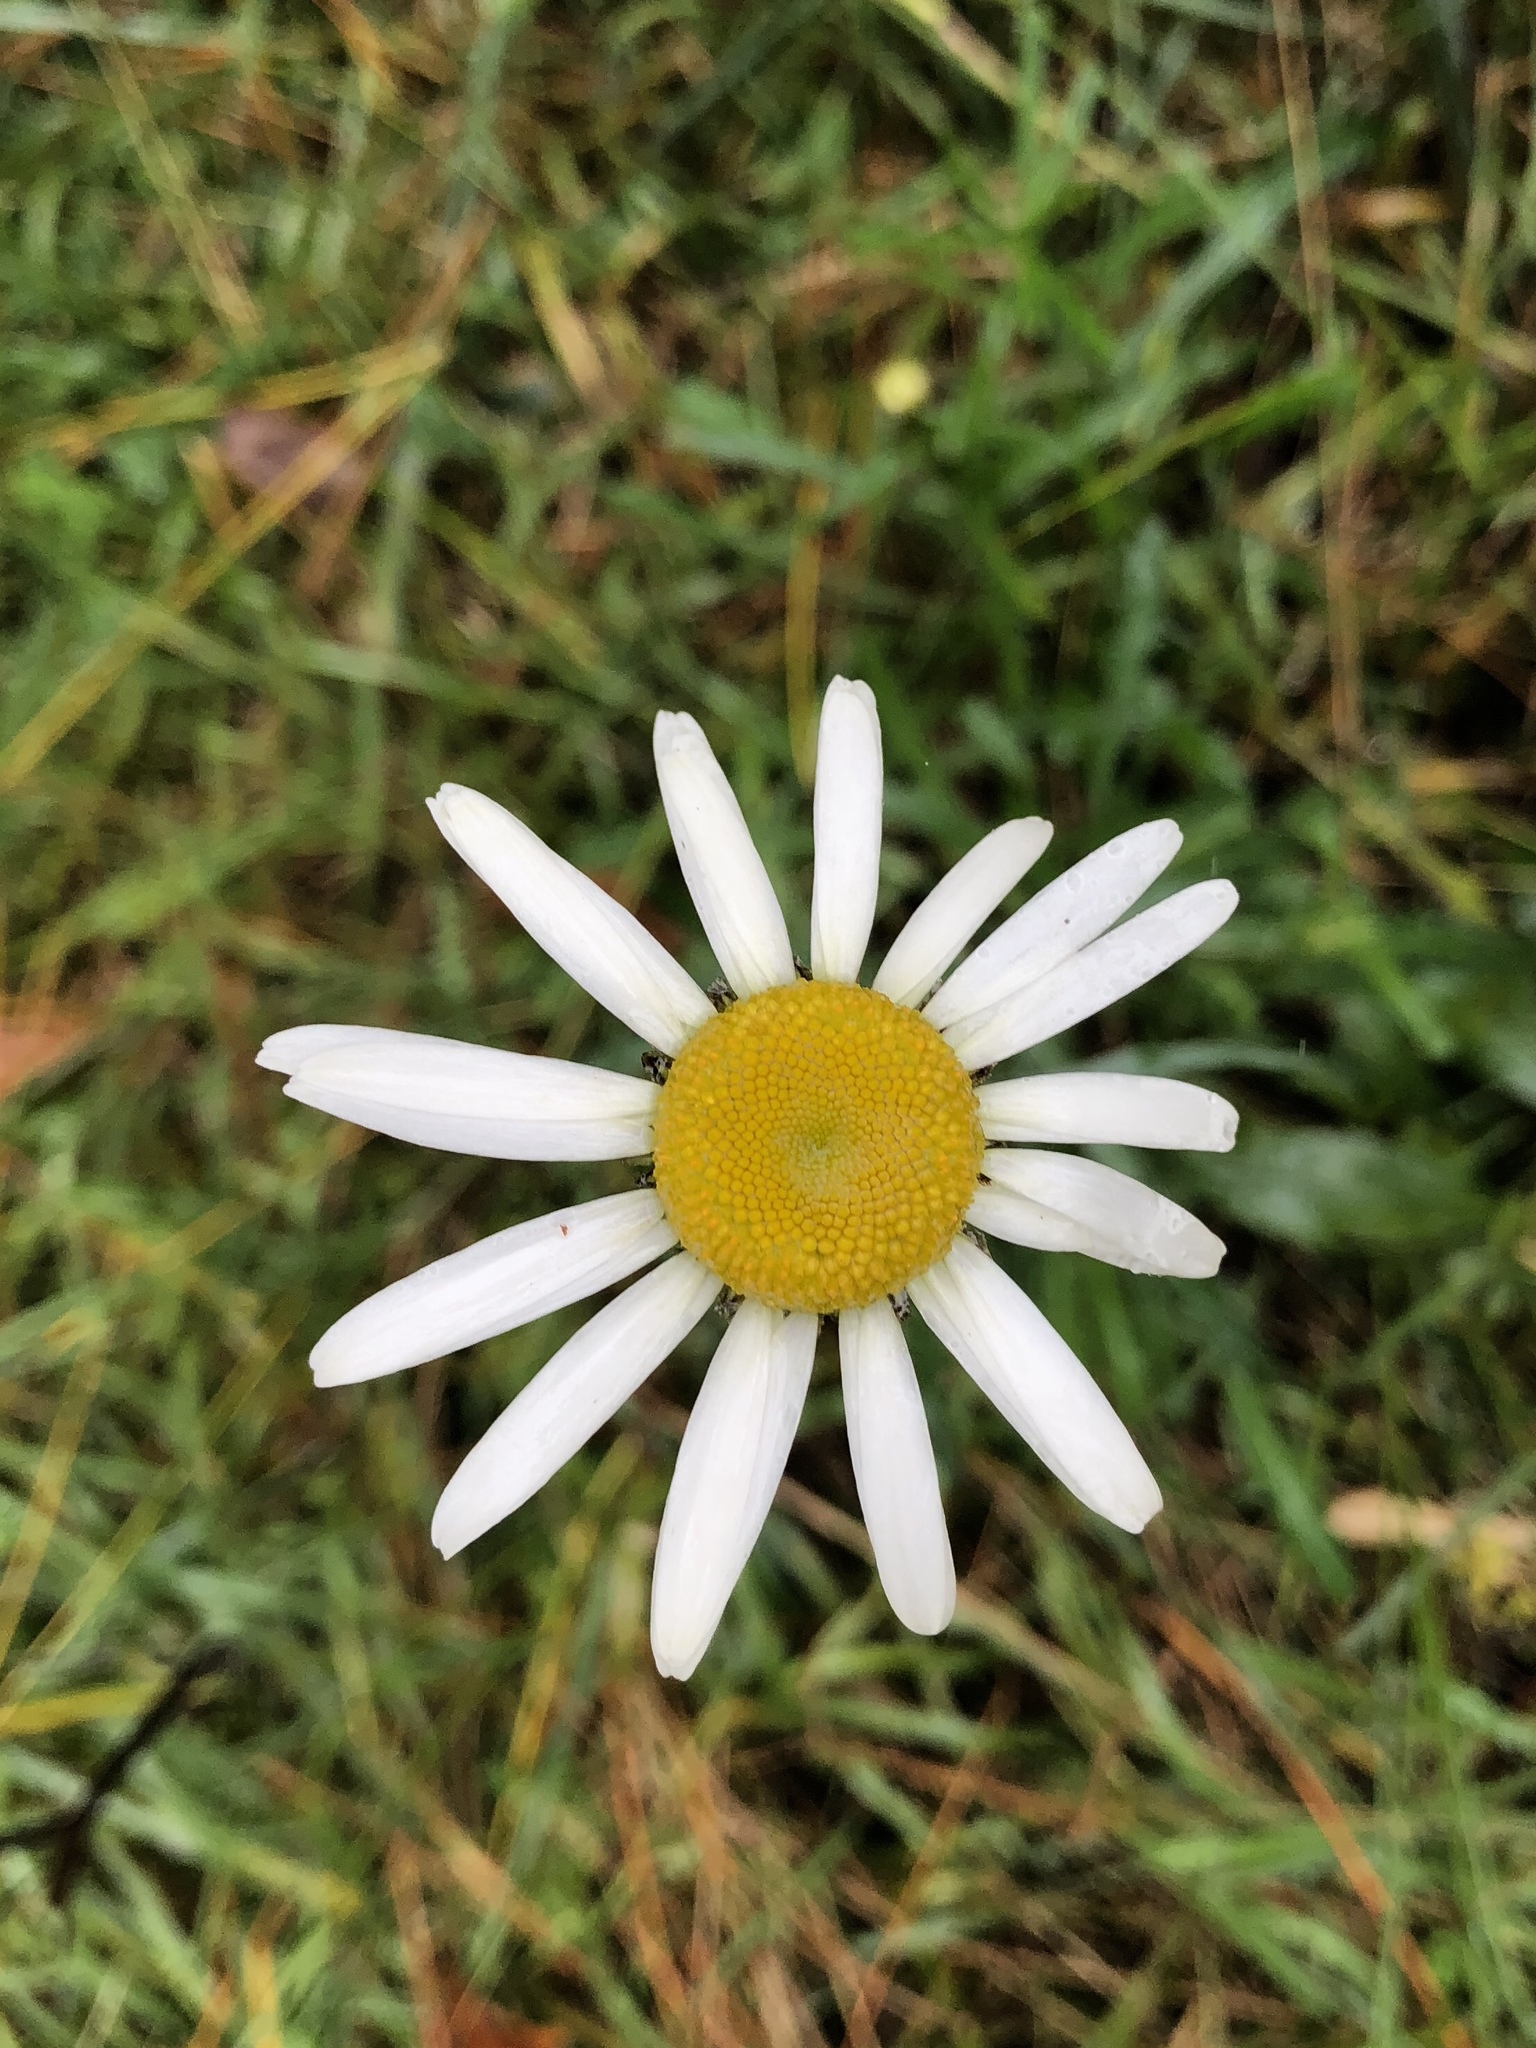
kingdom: Plantae
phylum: Tracheophyta
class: Magnoliopsida
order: Asterales
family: Asteraceae
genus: Leucanthemum
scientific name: Leucanthemum vulgare
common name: Oxeye daisy
